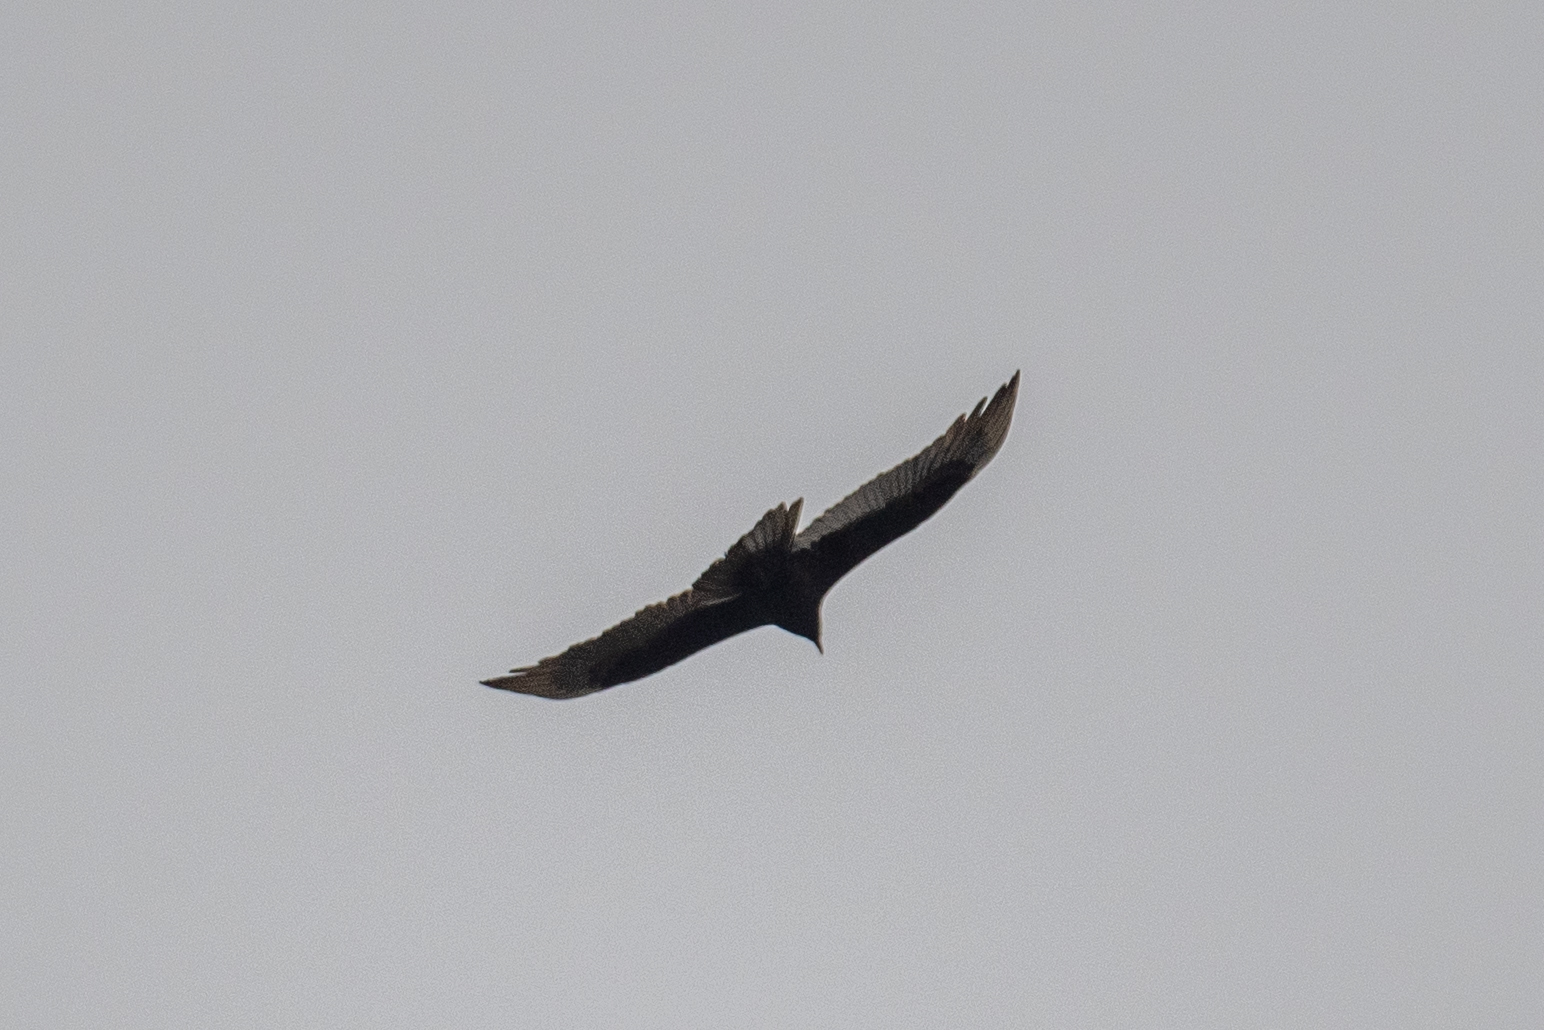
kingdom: Animalia
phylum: Chordata
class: Aves
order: Accipitriformes
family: Cathartidae
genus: Cathartes
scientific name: Cathartes aura
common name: Turkey vulture
